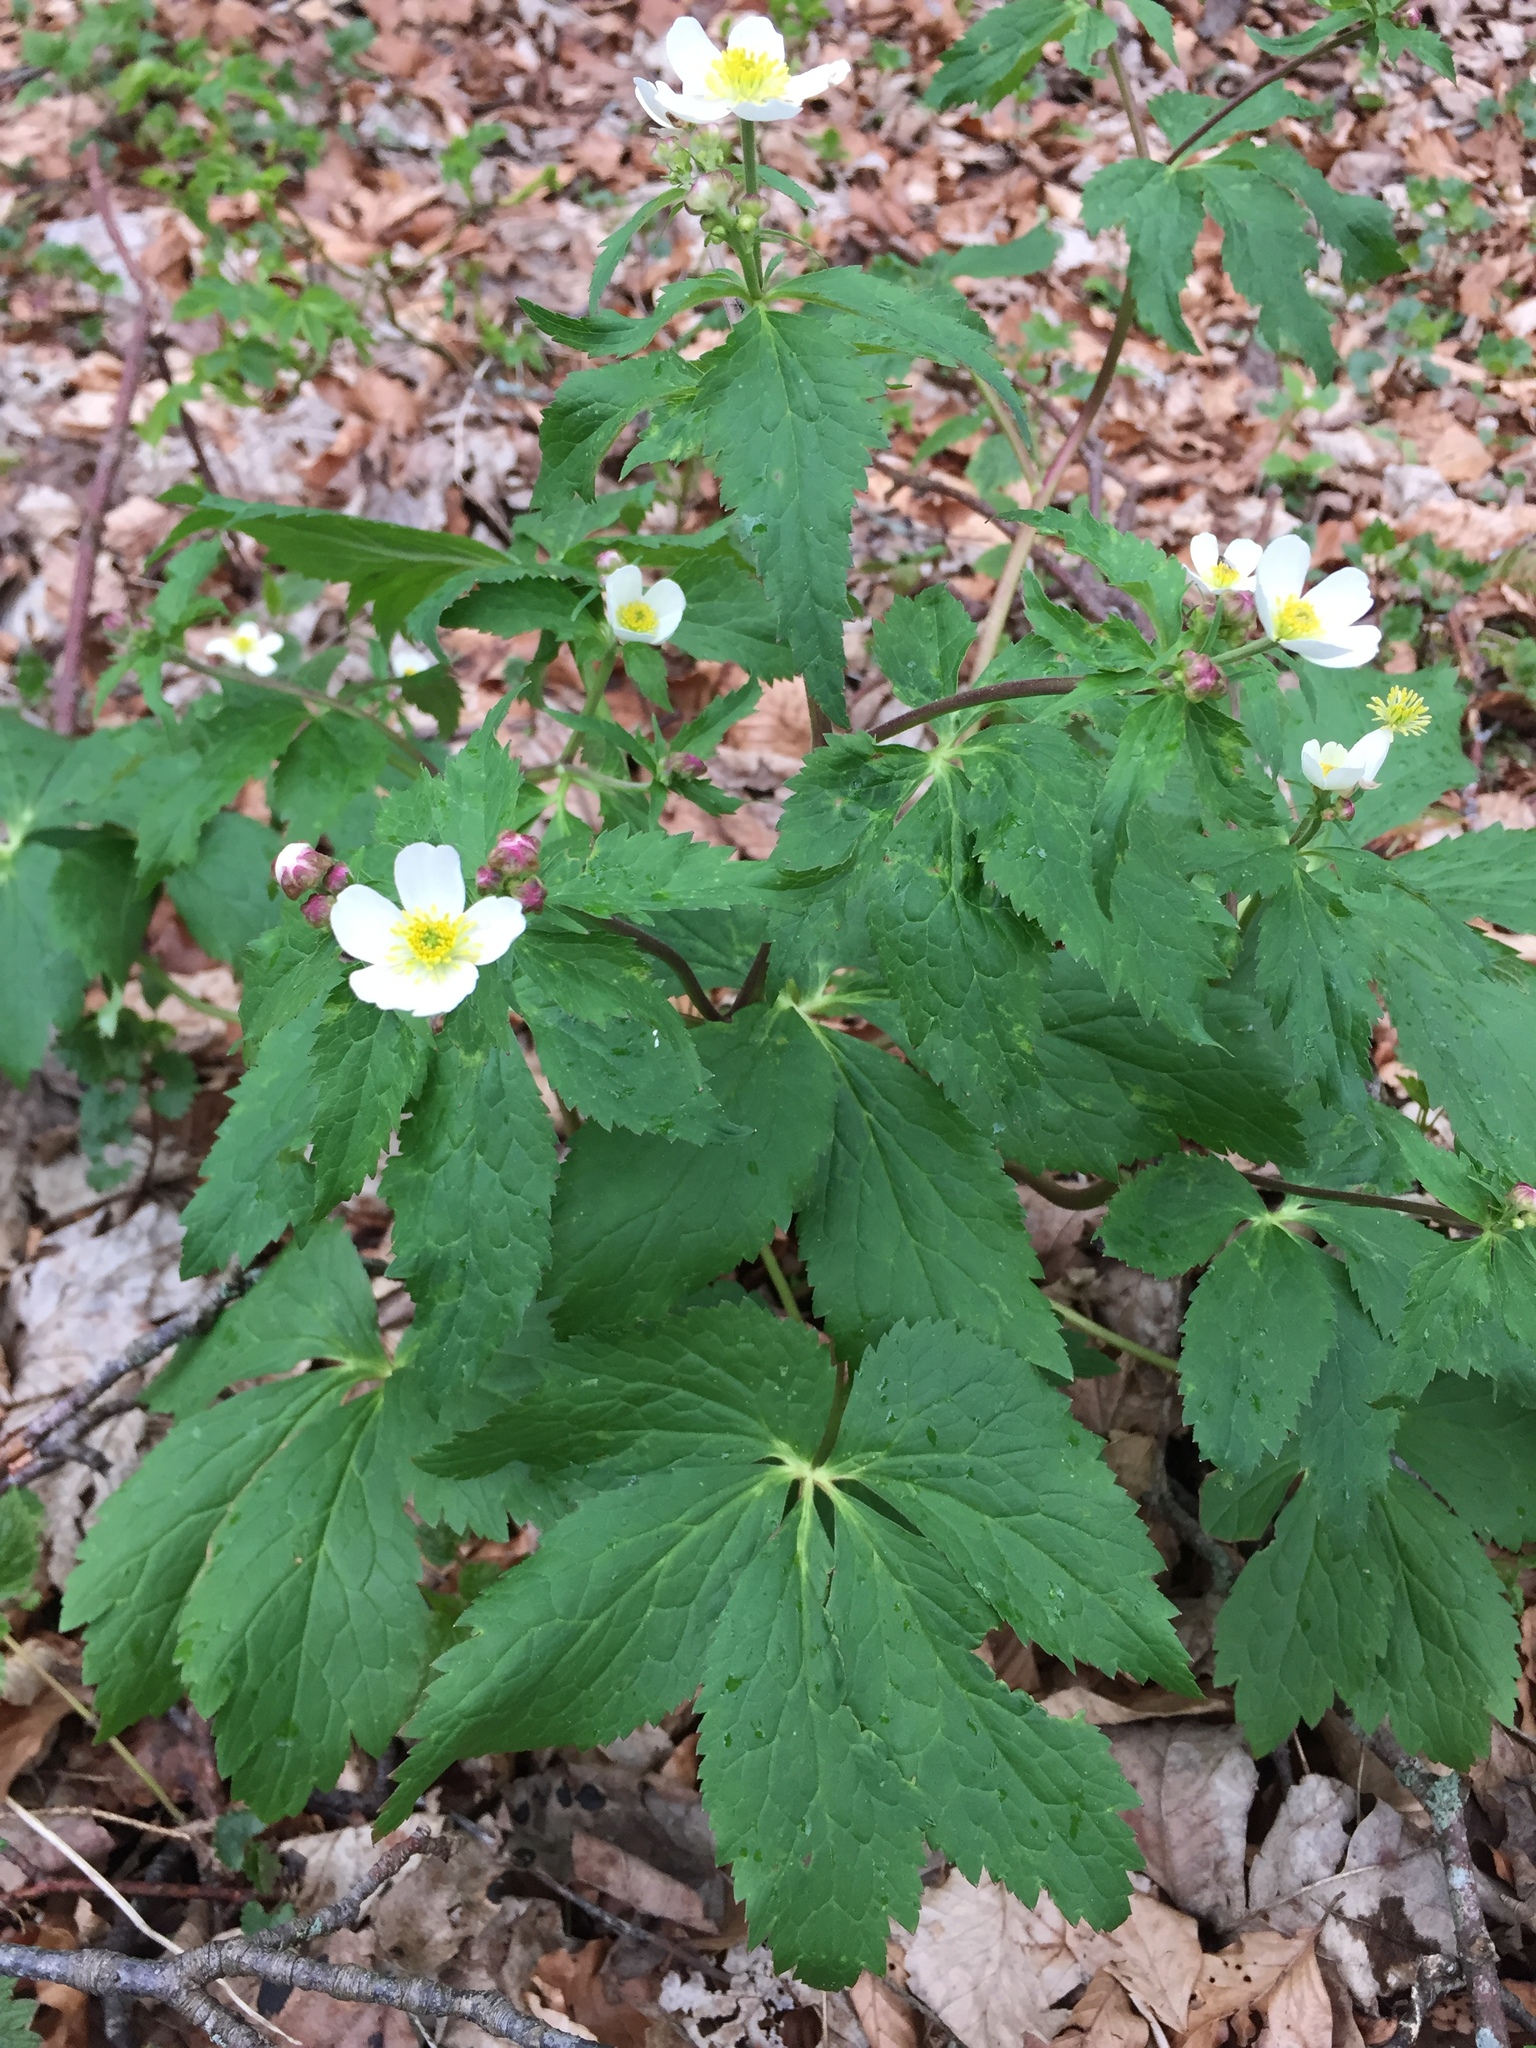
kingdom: Plantae
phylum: Tracheophyta
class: Magnoliopsida
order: Ranunculales
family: Ranunculaceae
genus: Ranunculus
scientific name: Ranunculus aconitifolius
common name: Aconite-leaved buttercup
